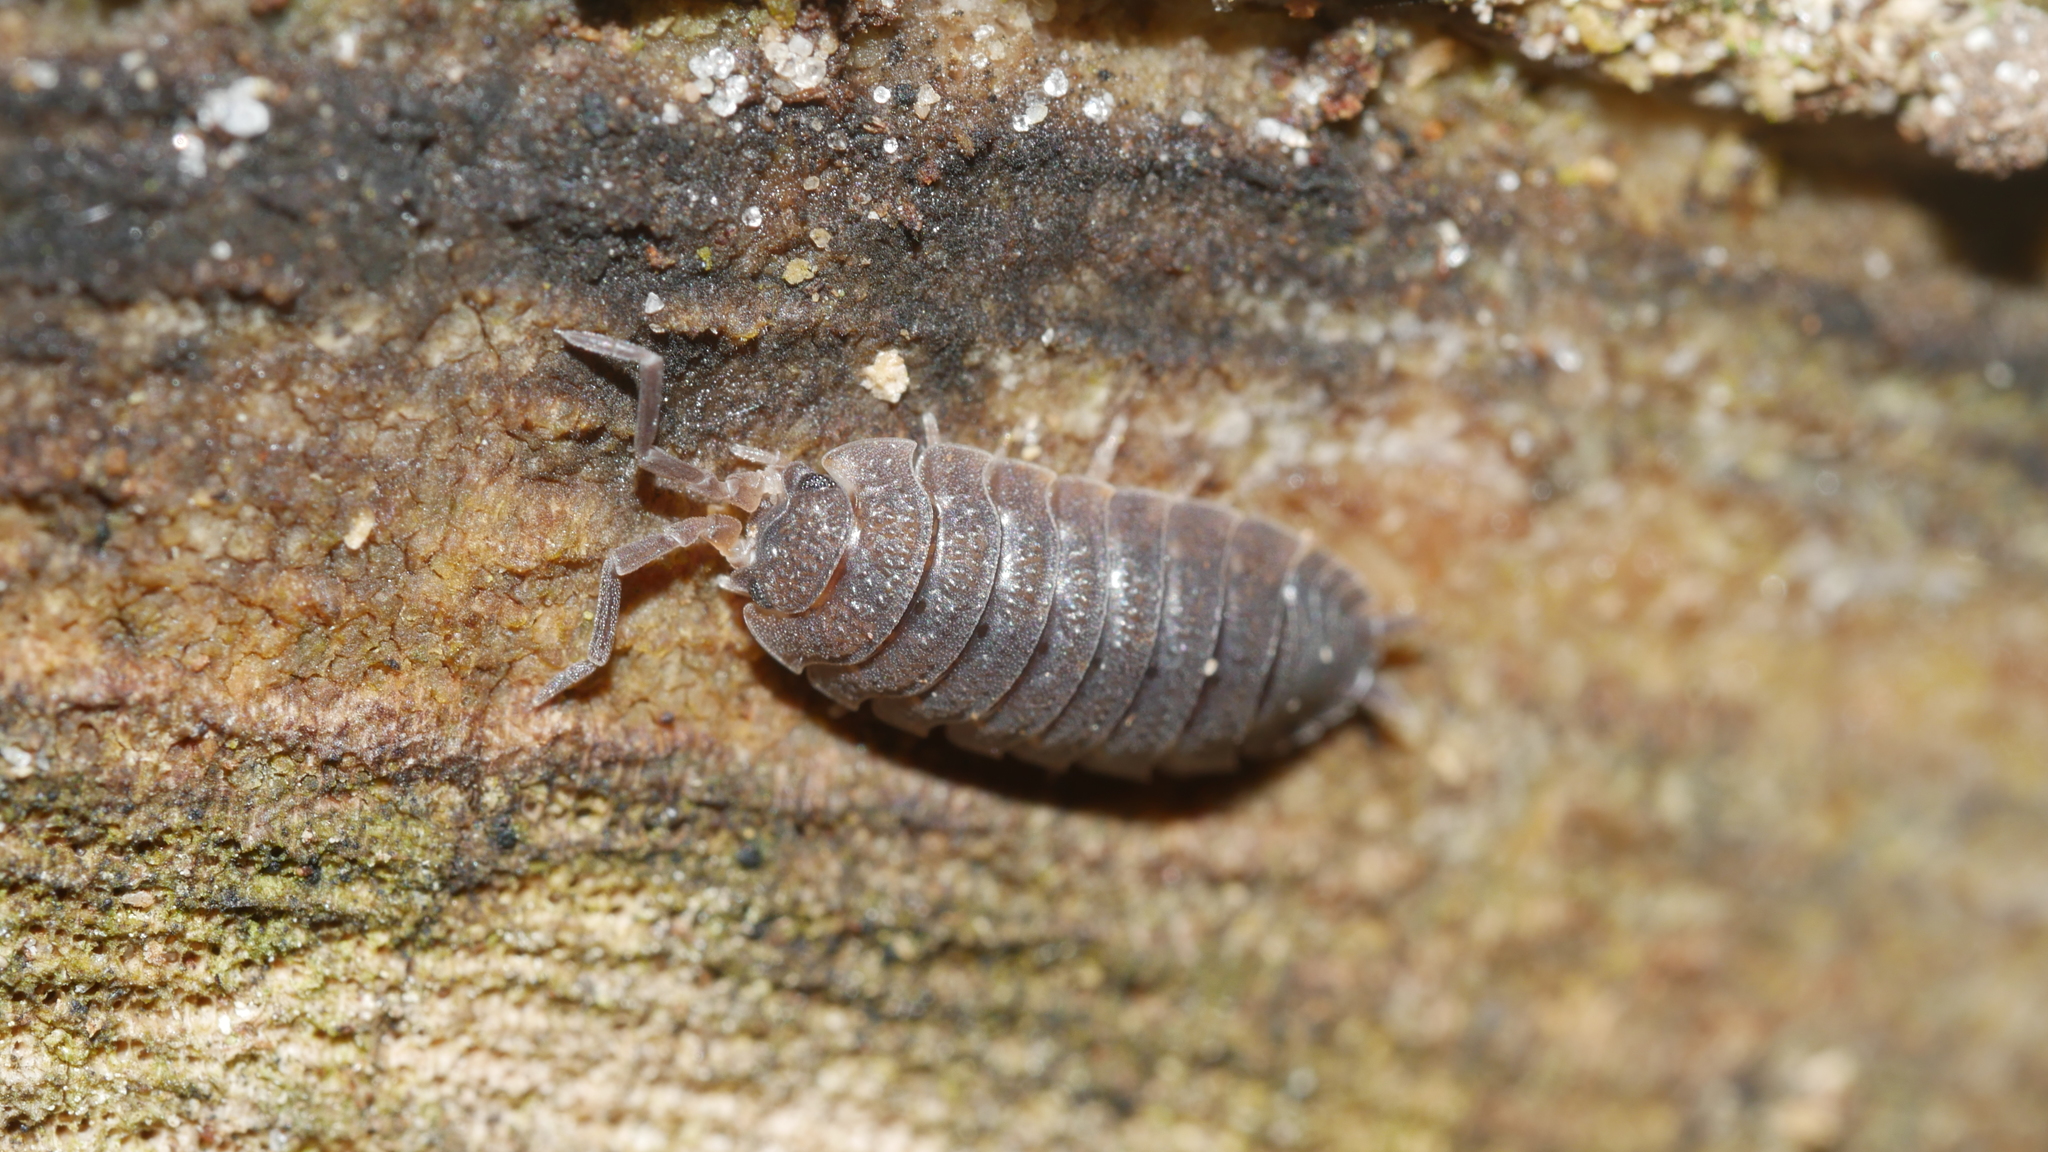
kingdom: Animalia
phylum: Arthropoda
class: Malacostraca
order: Isopoda
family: Porcellionidae
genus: Porcellio
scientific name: Porcellio scaber
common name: Common rough woodlouse
